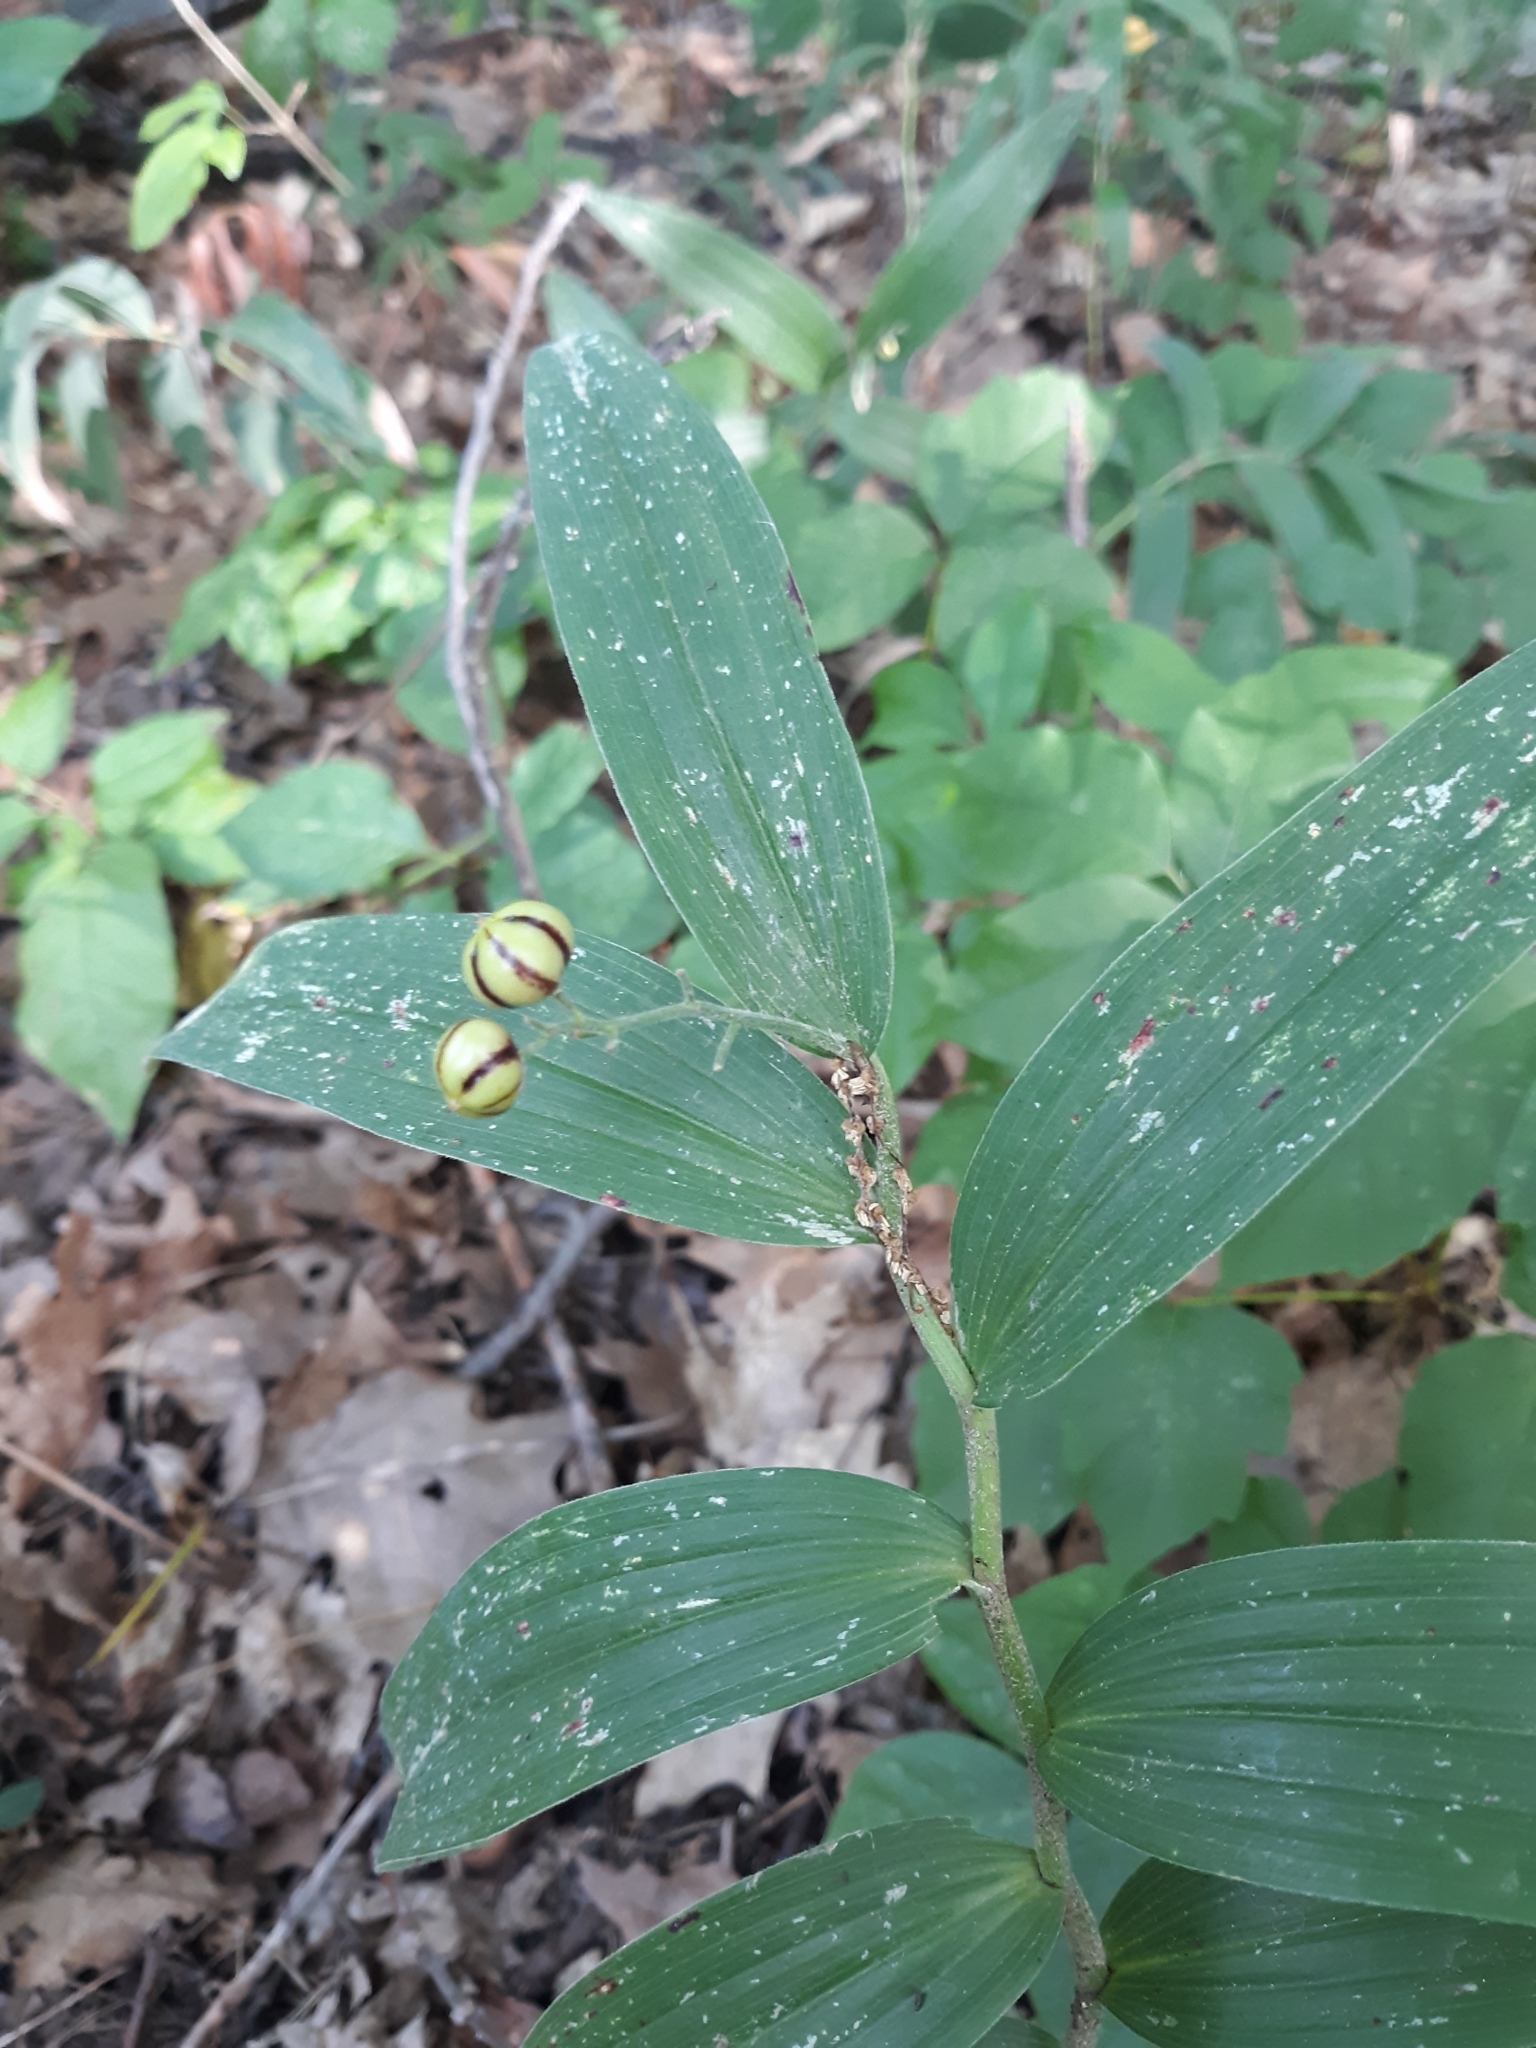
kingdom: Plantae
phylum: Tracheophyta
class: Liliopsida
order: Asparagales
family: Asparagaceae
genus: Maianthemum
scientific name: Maianthemum stellatum
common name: Little false solomon's seal
